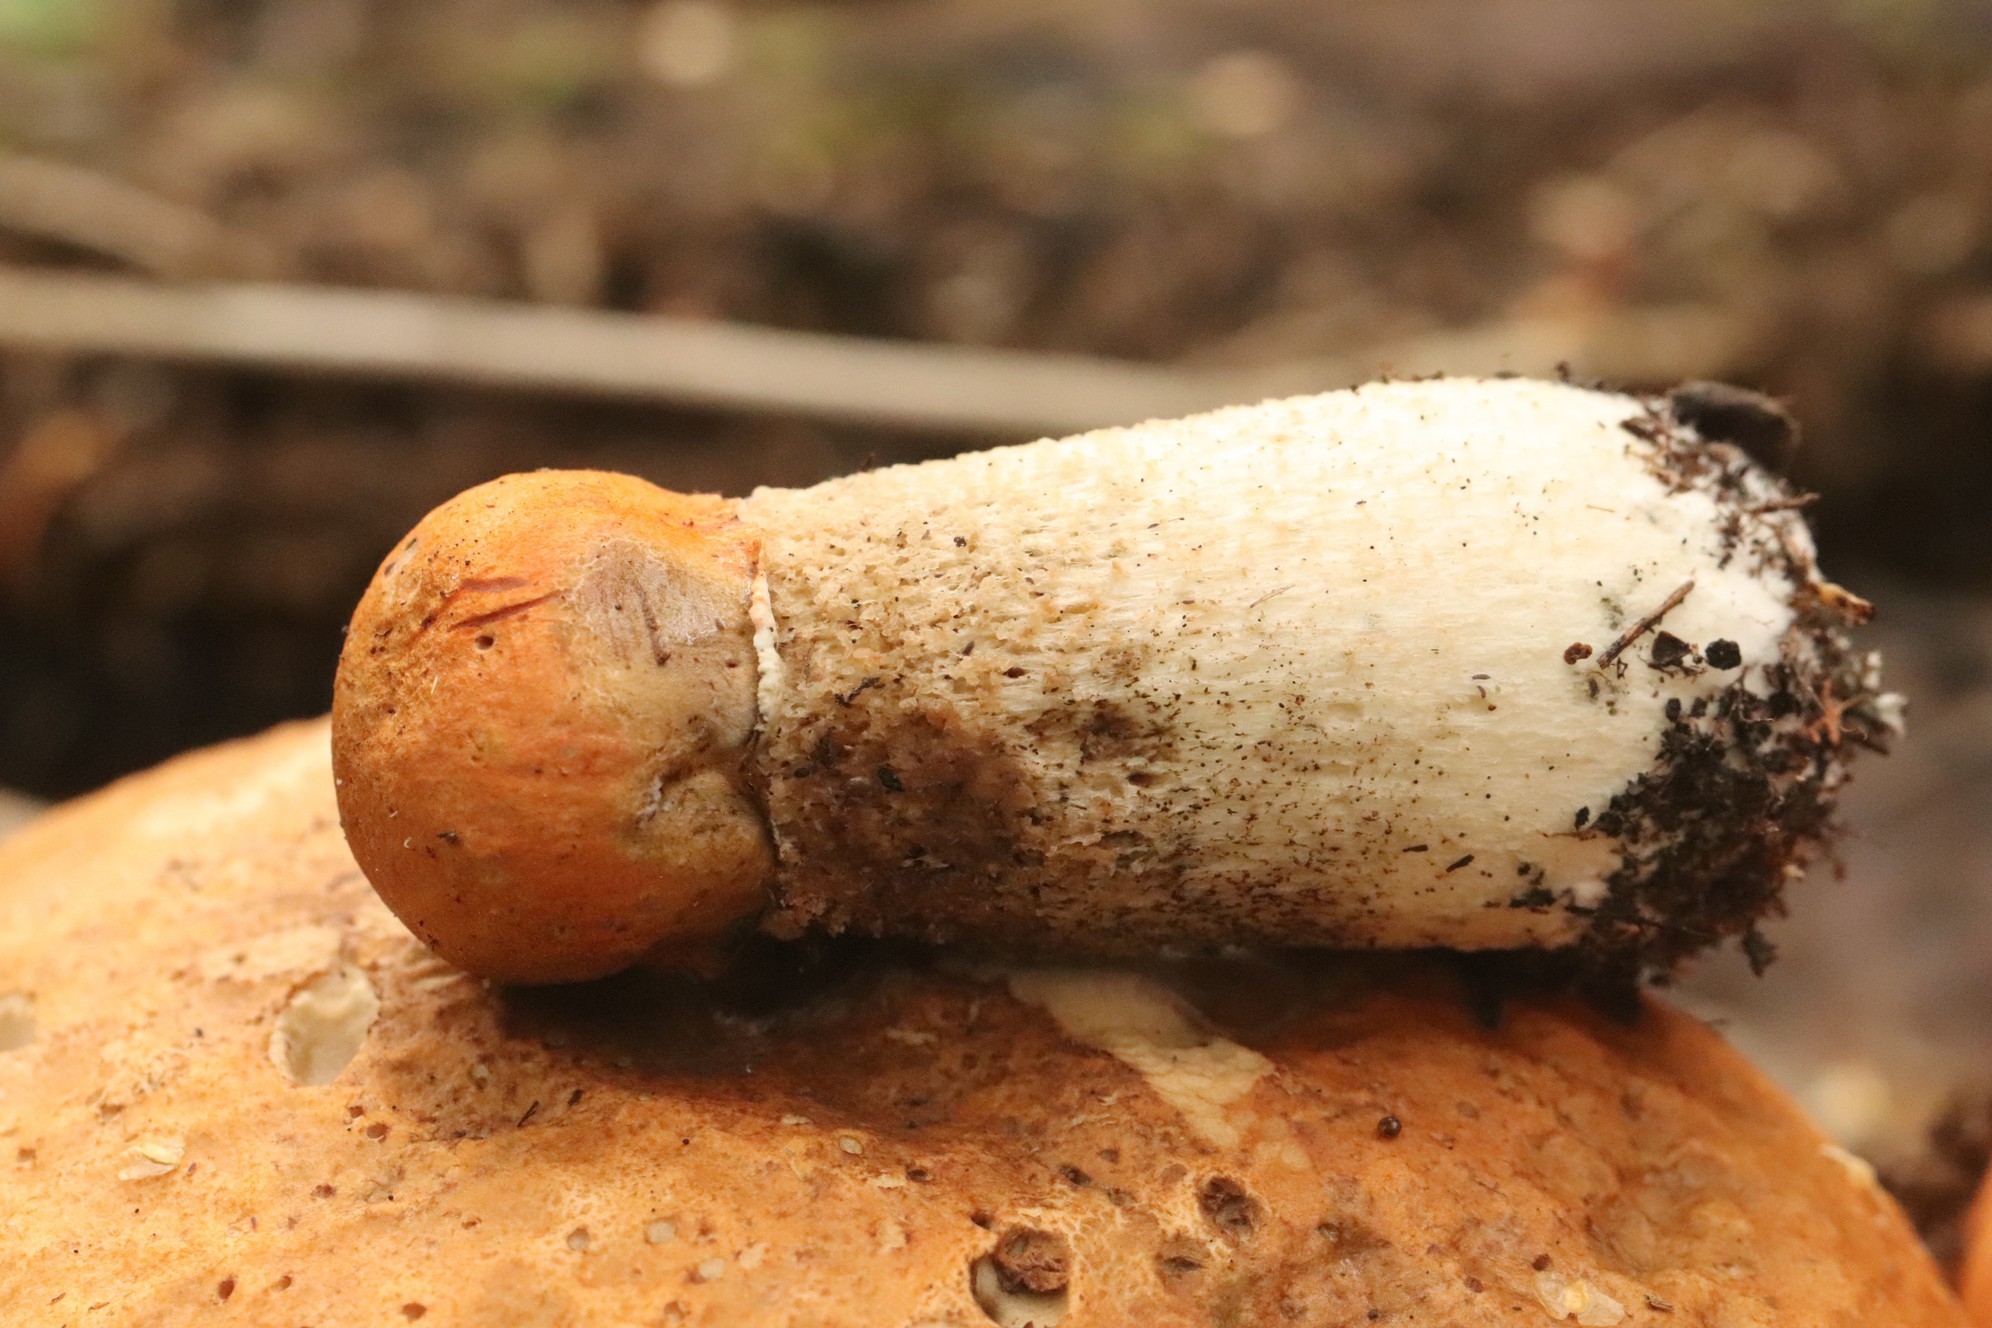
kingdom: Fungi
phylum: Basidiomycota
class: Agaricomycetes
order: Boletales
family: Boletaceae
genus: Leccinum
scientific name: Leccinum aurantiacum
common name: Orange bolete
